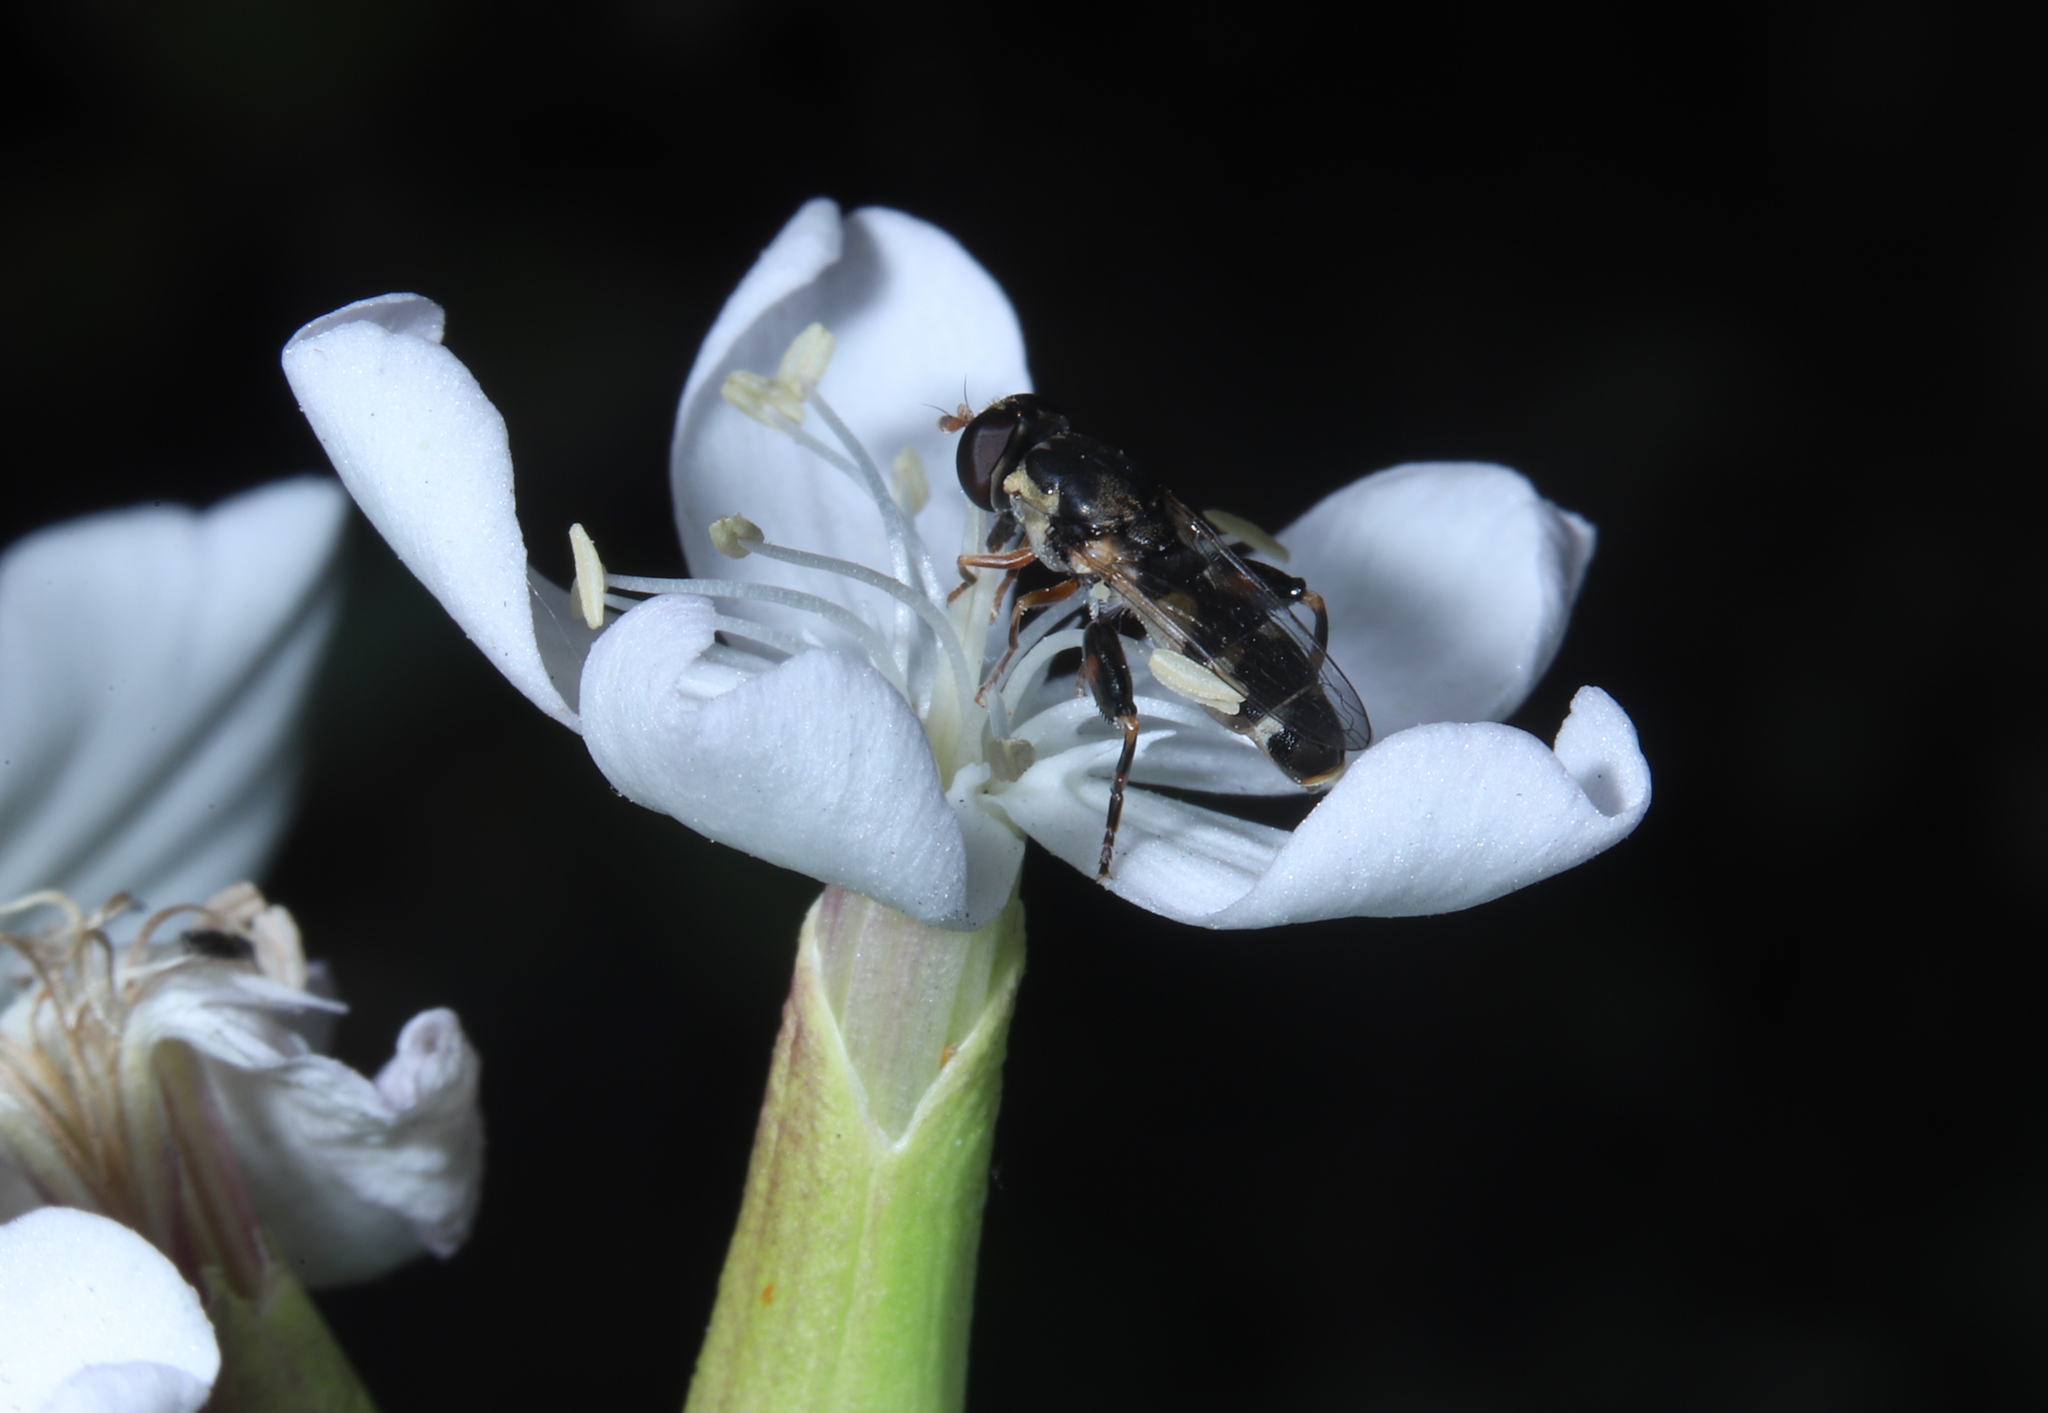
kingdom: Animalia
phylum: Arthropoda
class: Insecta
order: Diptera
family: Syrphidae
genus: Syritta
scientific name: Syritta pipiens
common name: Hover fly
